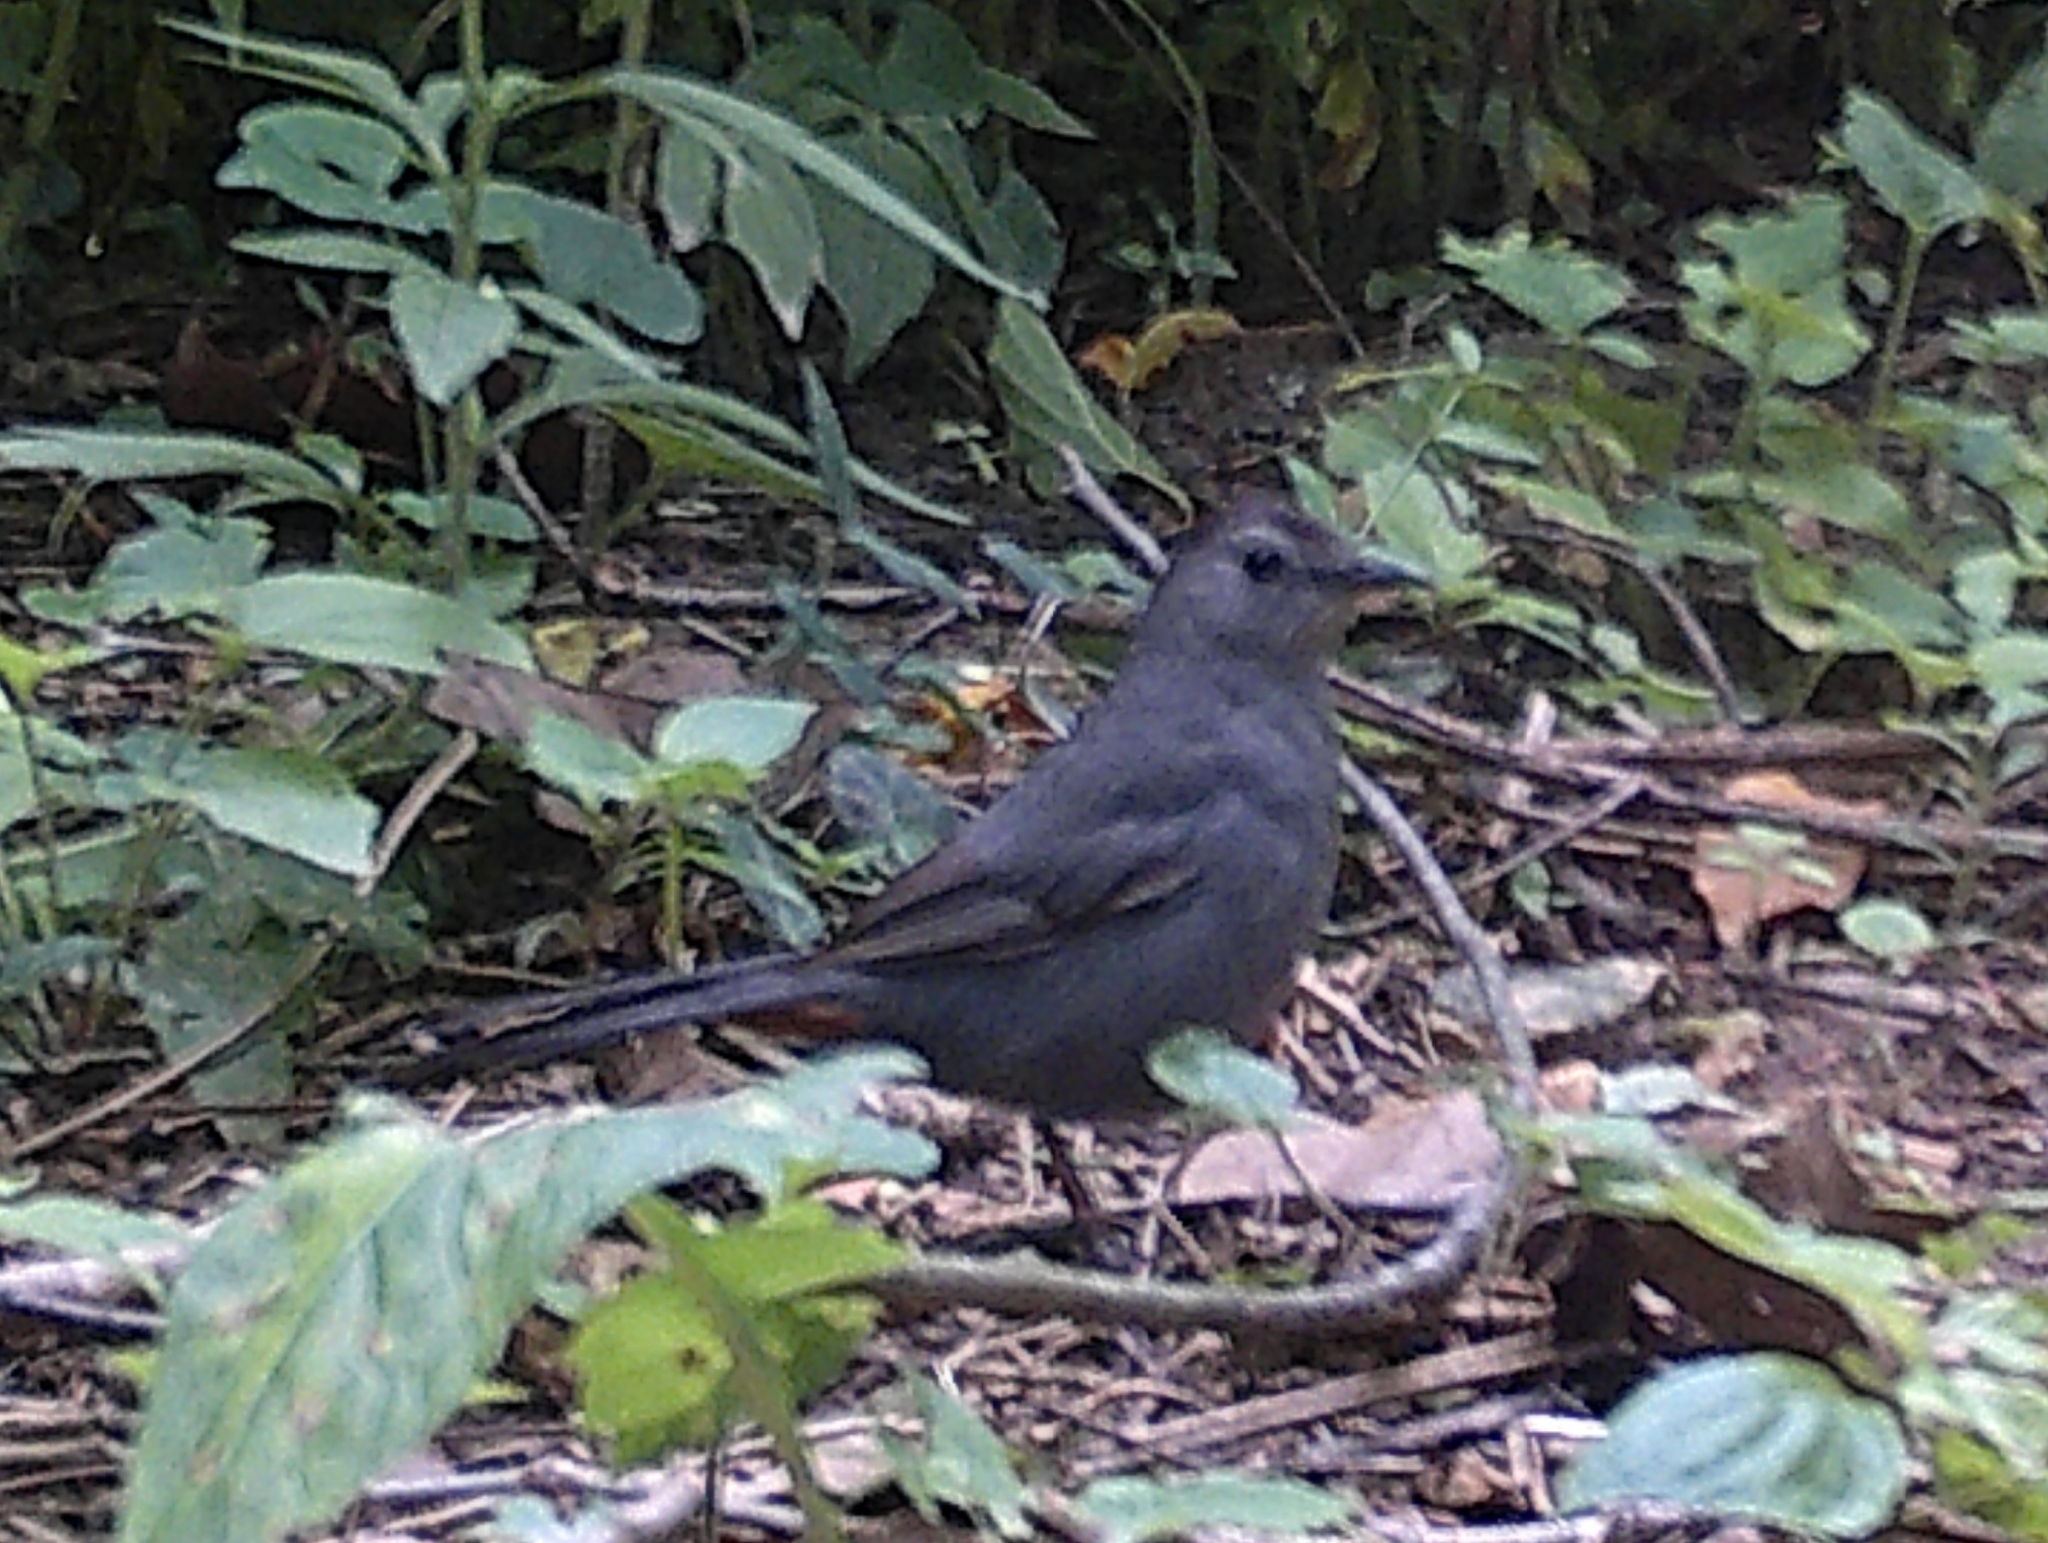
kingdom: Animalia
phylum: Chordata
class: Aves
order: Passeriformes
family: Mimidae
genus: Dumetella
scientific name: Dumetella carolinensis
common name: Gray catbird
